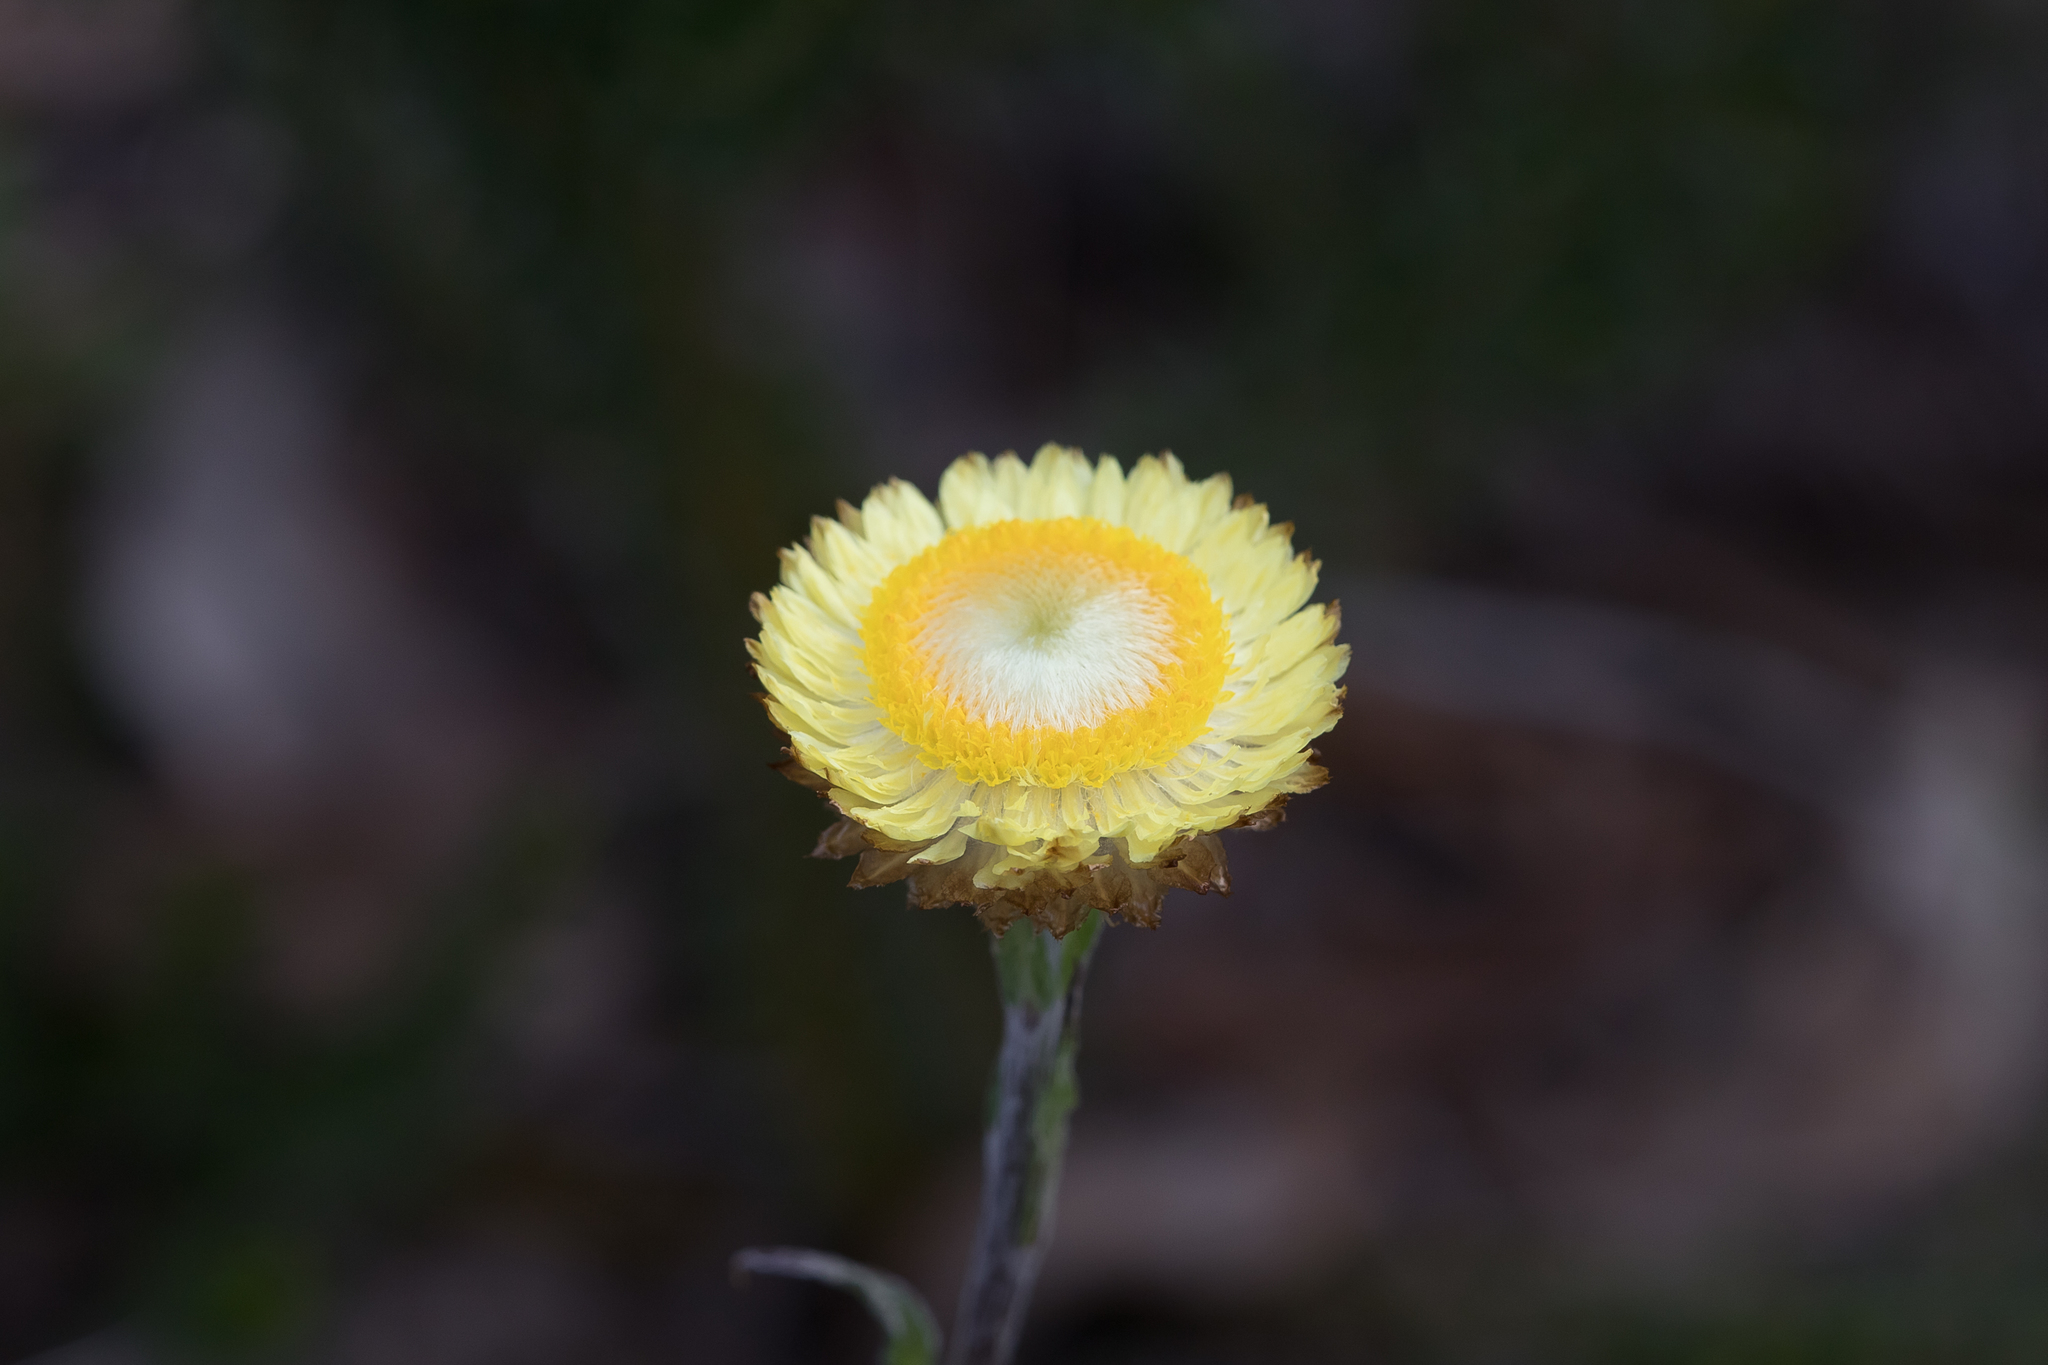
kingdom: Plantae
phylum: Tracheophyta
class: Magnoliopsida
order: Asterales
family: Asteraceae
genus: Coronidium
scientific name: Coronidium scorpioides
